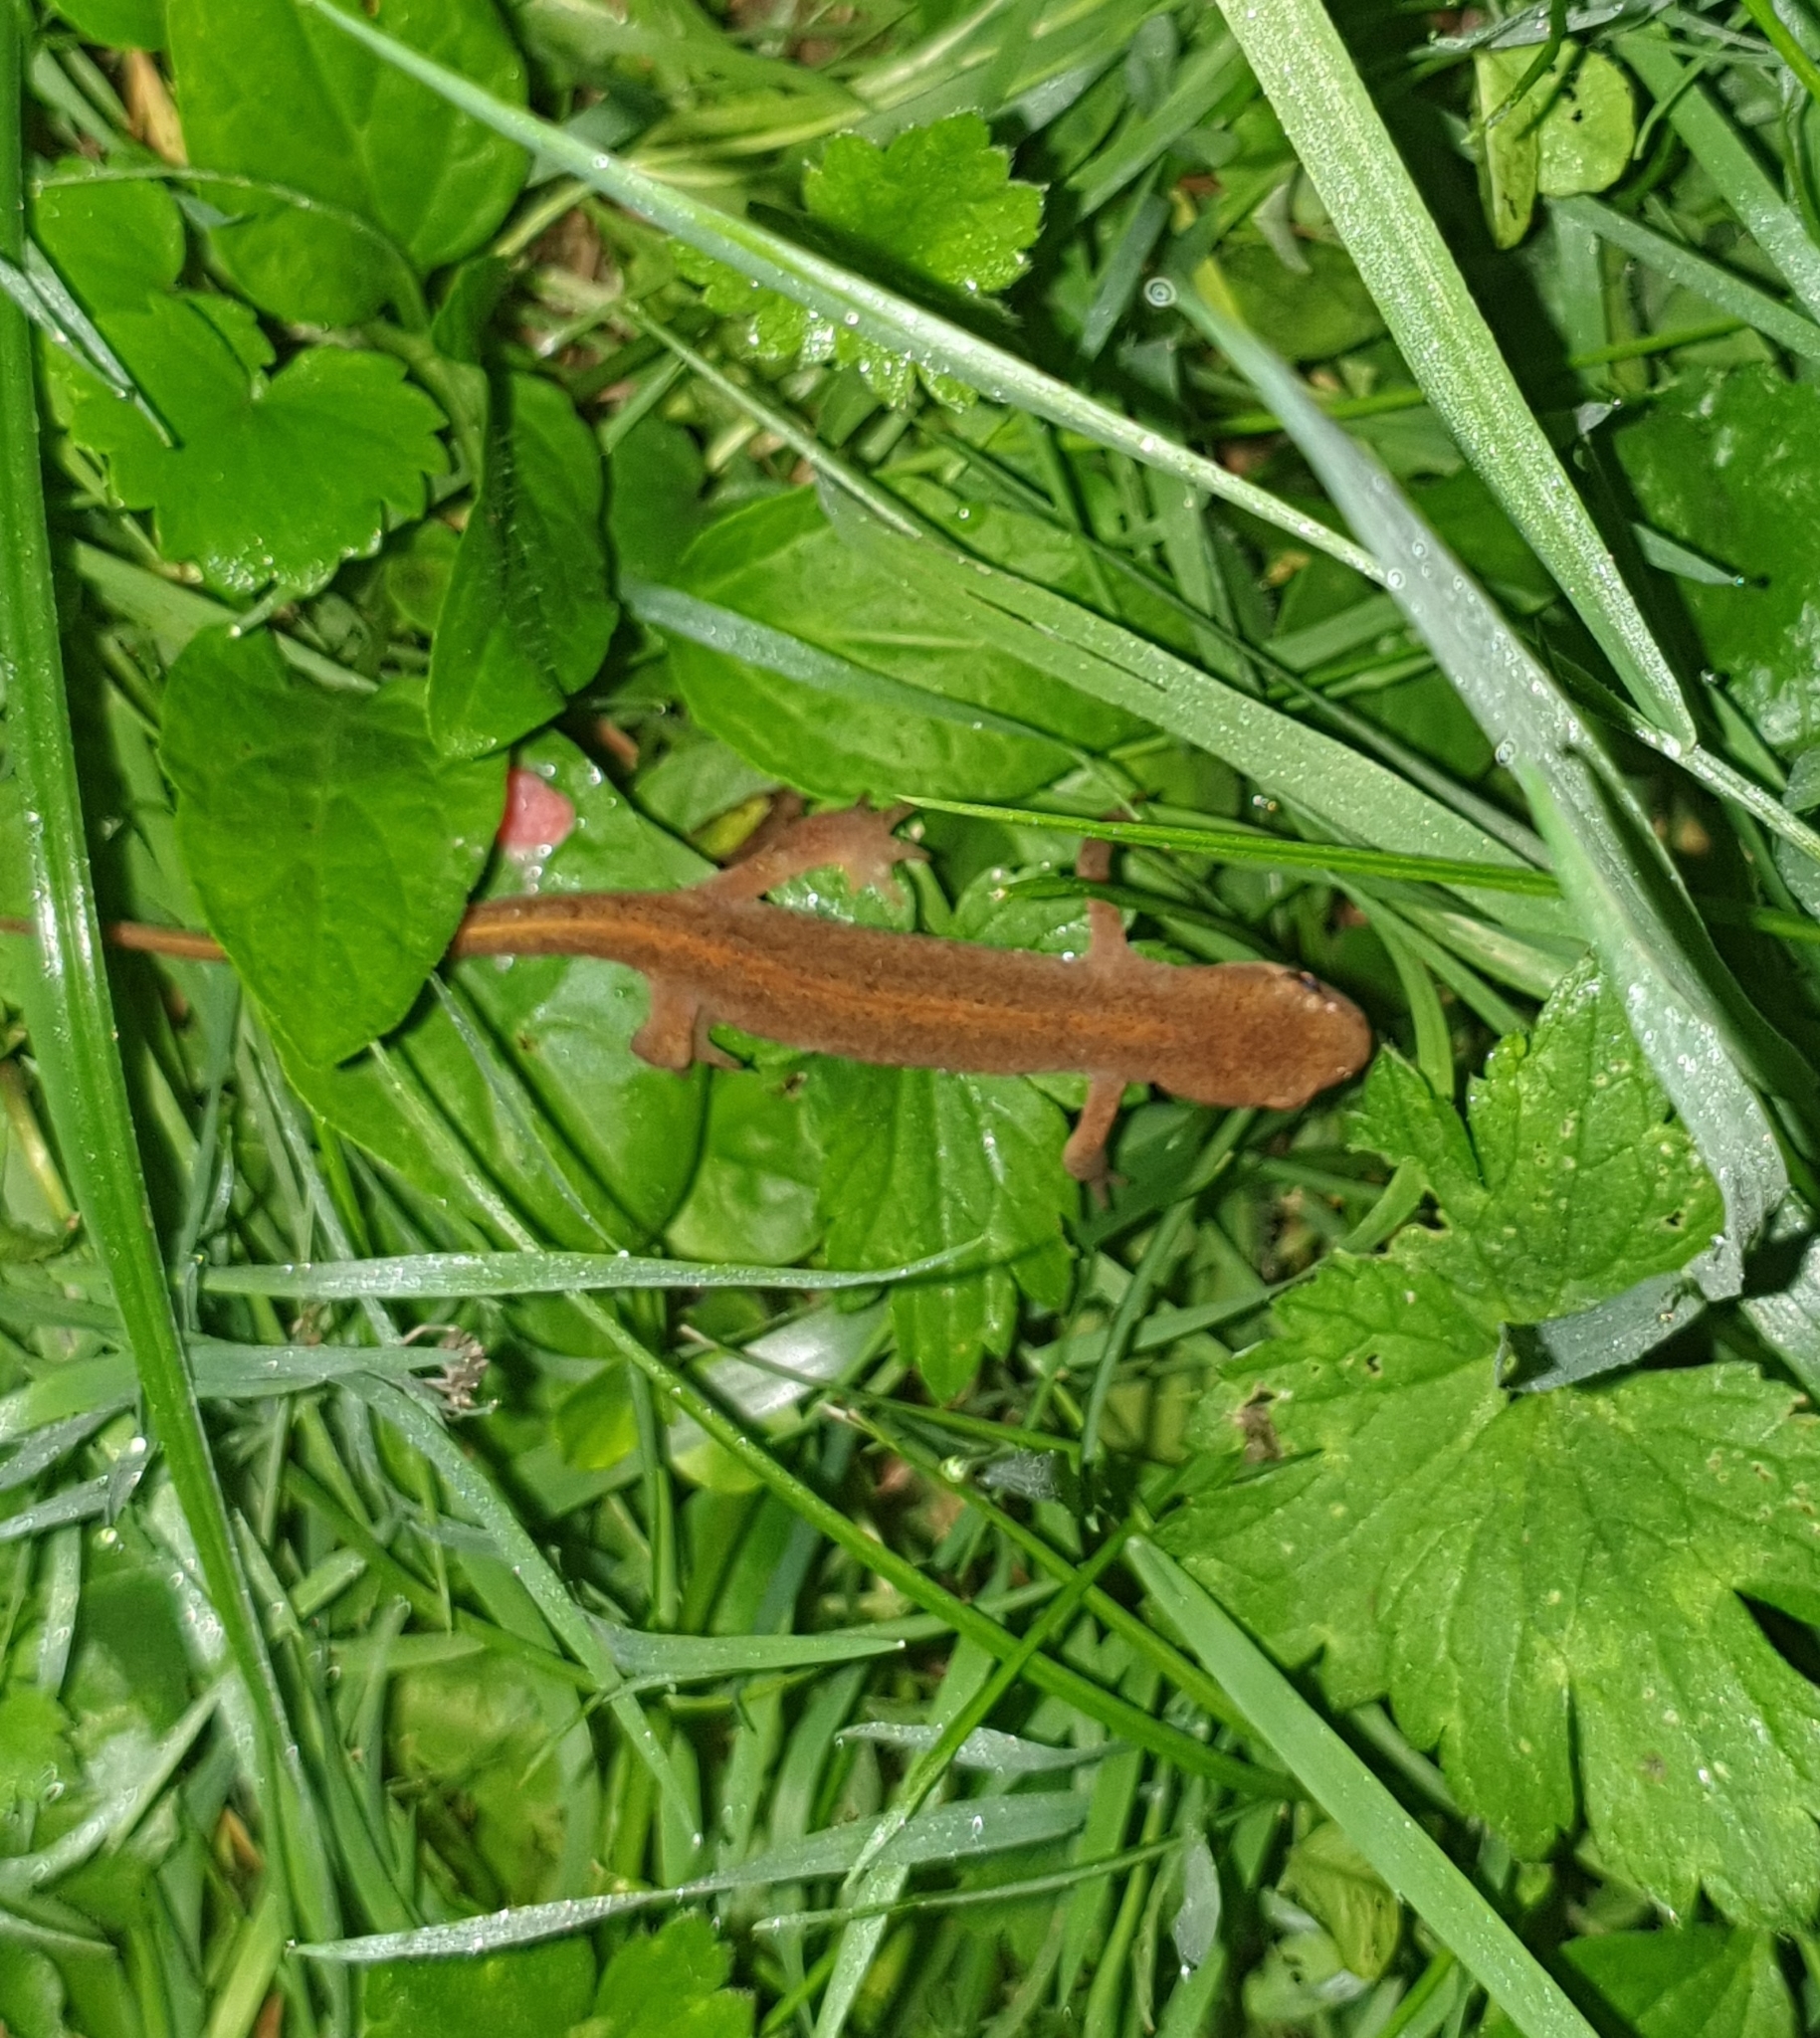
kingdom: Animalia
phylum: Chordata
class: Amphibia
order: Caudata
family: Salamandridae
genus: Lissotriton
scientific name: Lissotriton vulgaris
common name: Smooth newt
